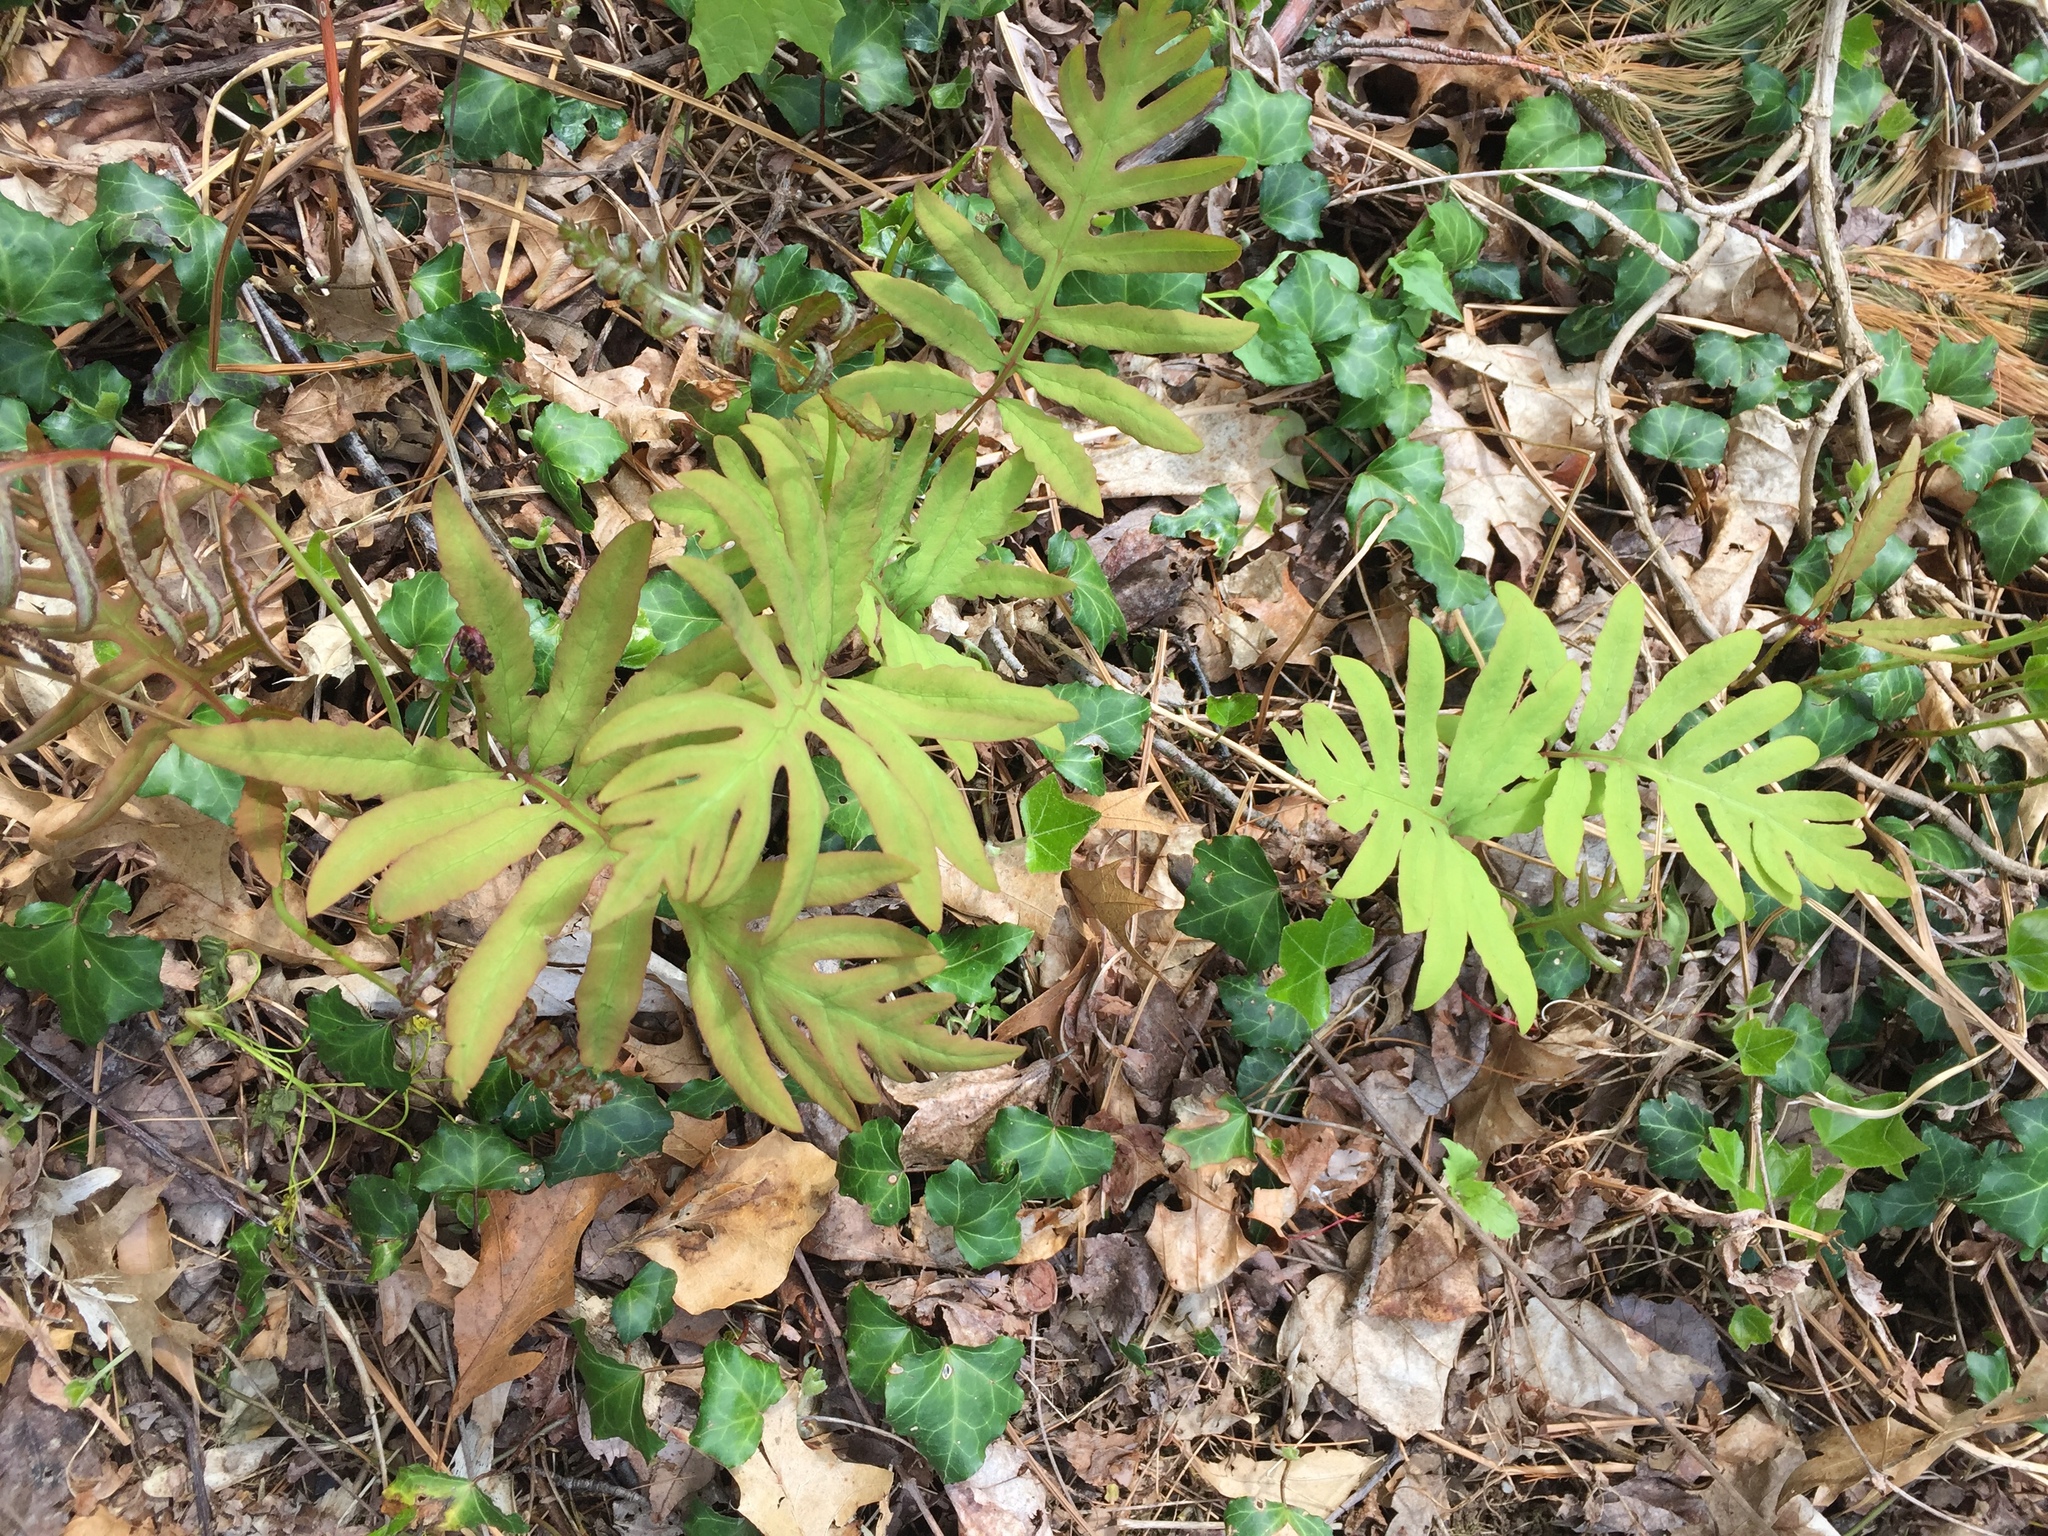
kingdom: Plantae
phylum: Tracheophyta
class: Polypodiopsida
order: Polypodiales
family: Onocleaceae
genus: Onoclea
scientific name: Onoclea sensibilis
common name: Sensitive fern
